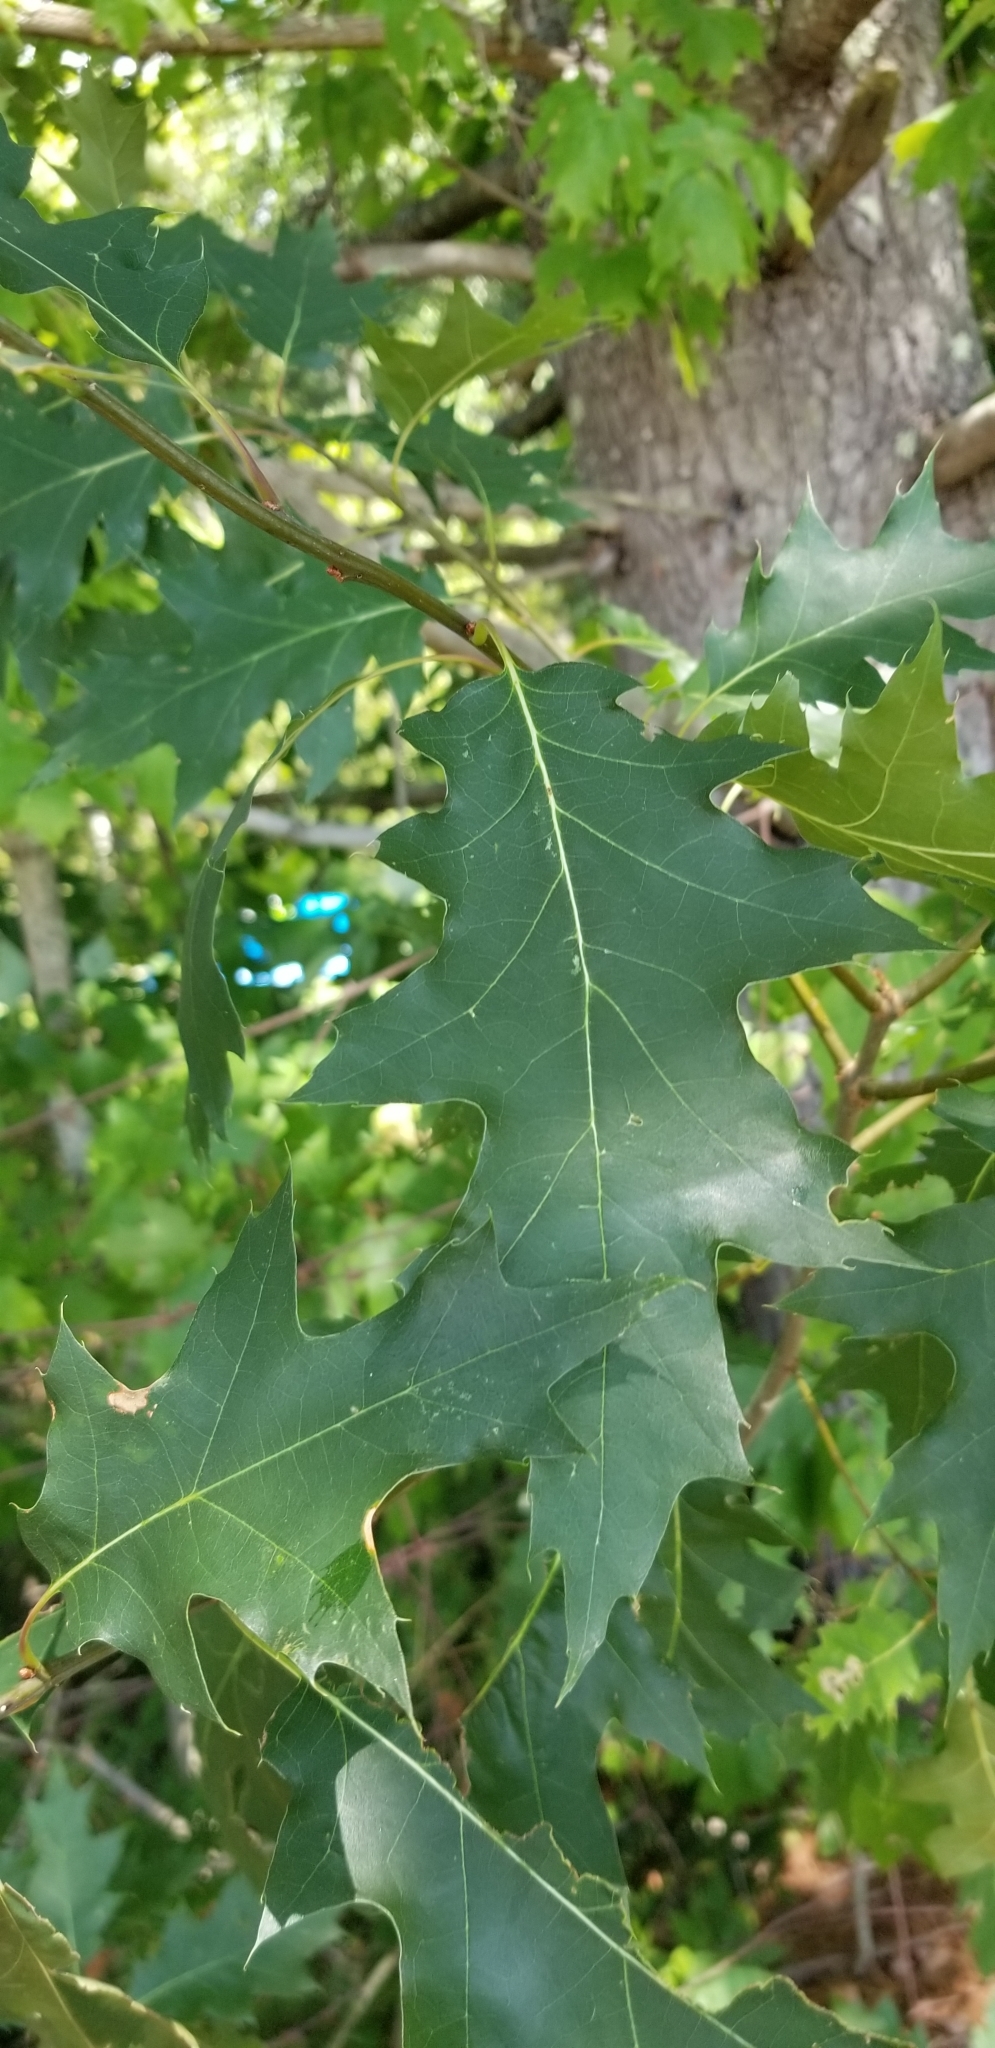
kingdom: Plantae
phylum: Tracheophyta
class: Magnoliopsida
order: Fagales
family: Fagaceae
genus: Quercus
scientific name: Quercus rubra
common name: Red oak
